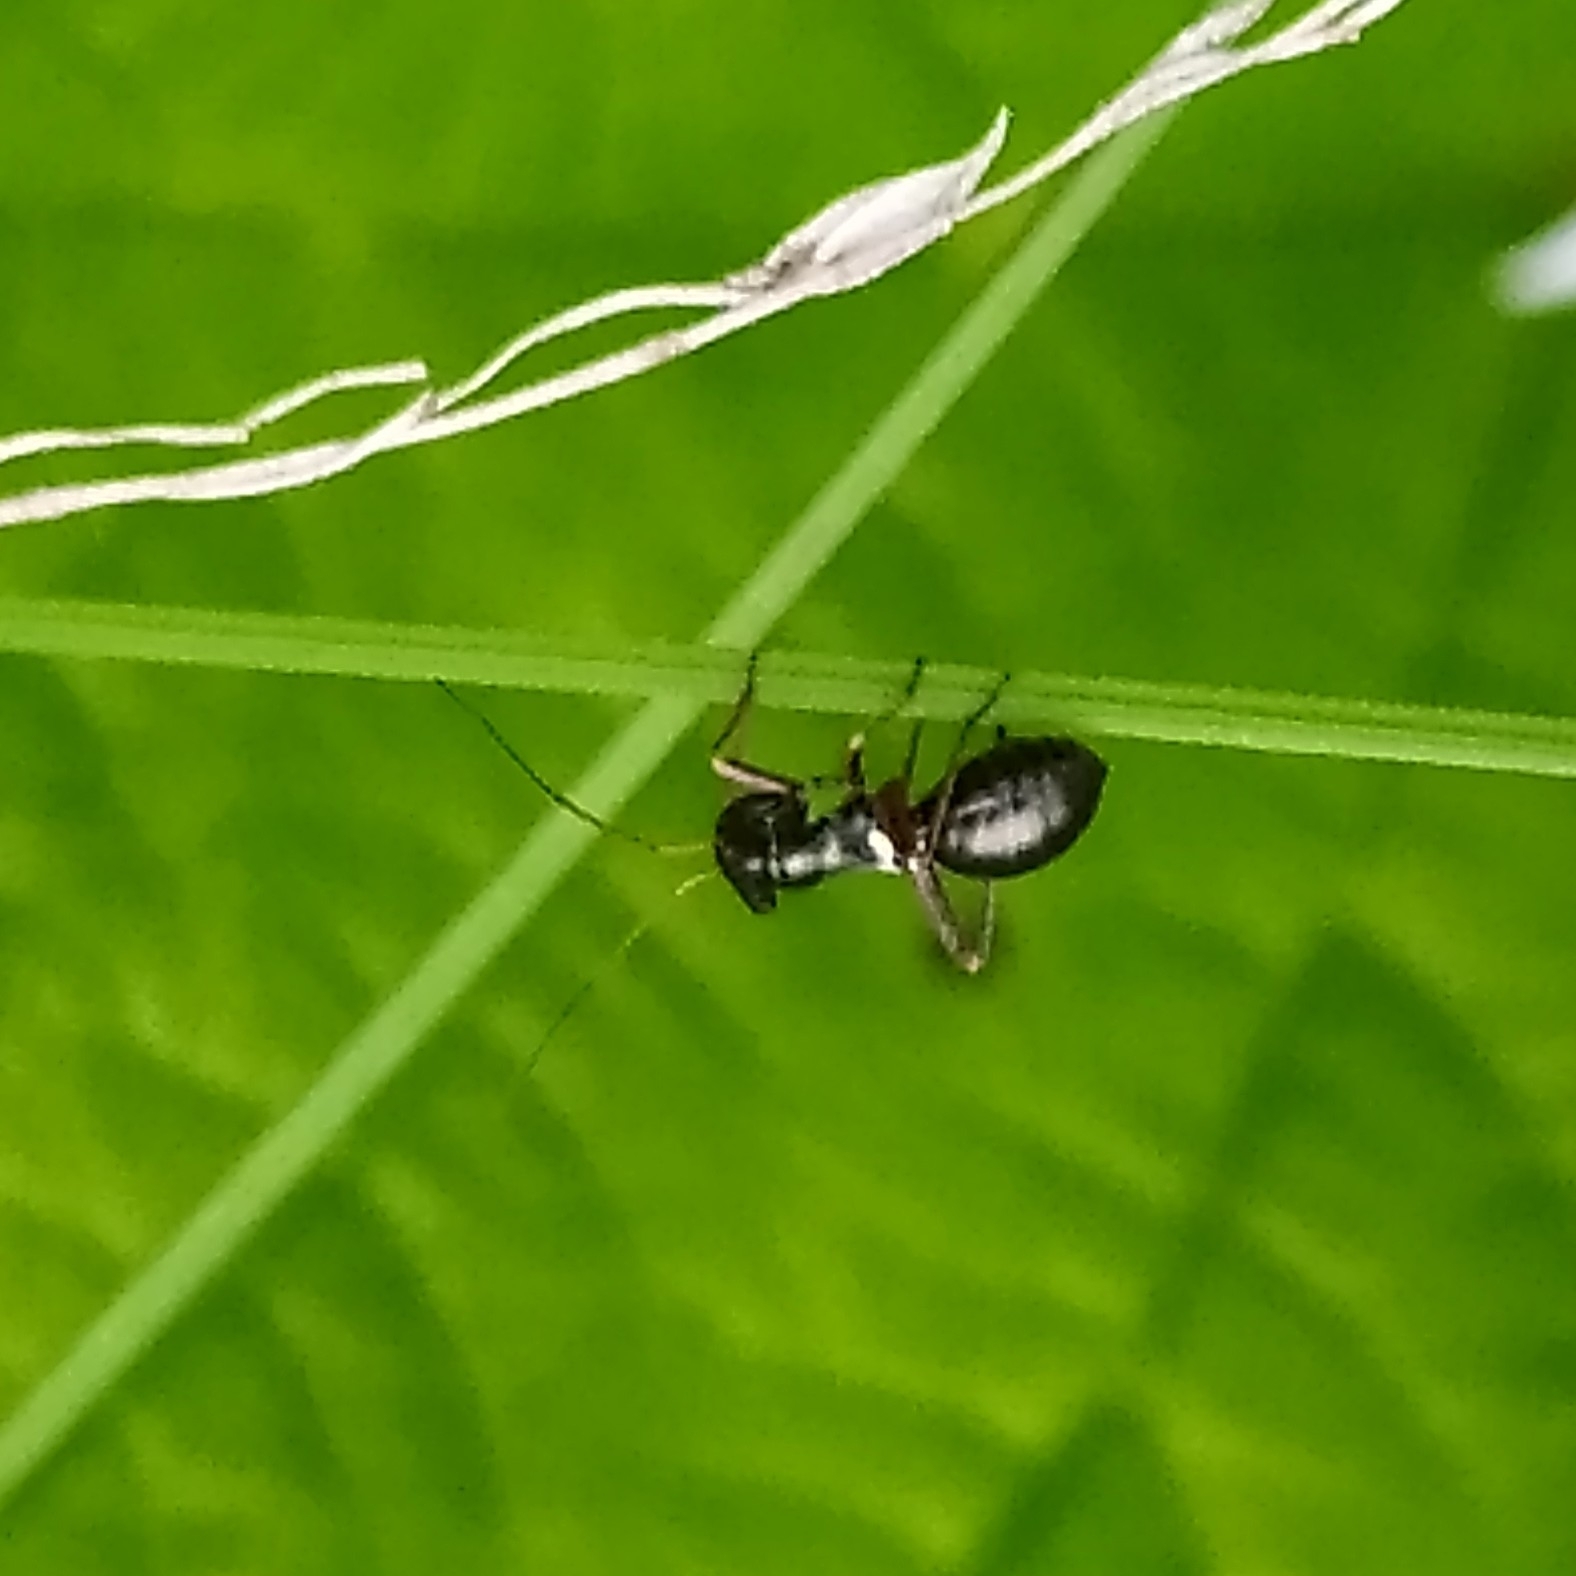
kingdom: Animalia
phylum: Arthropoda
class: Insecta
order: Hemiptera
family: Miridae
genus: Myrmecophyes
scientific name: Myrmecophyes alboornatus
